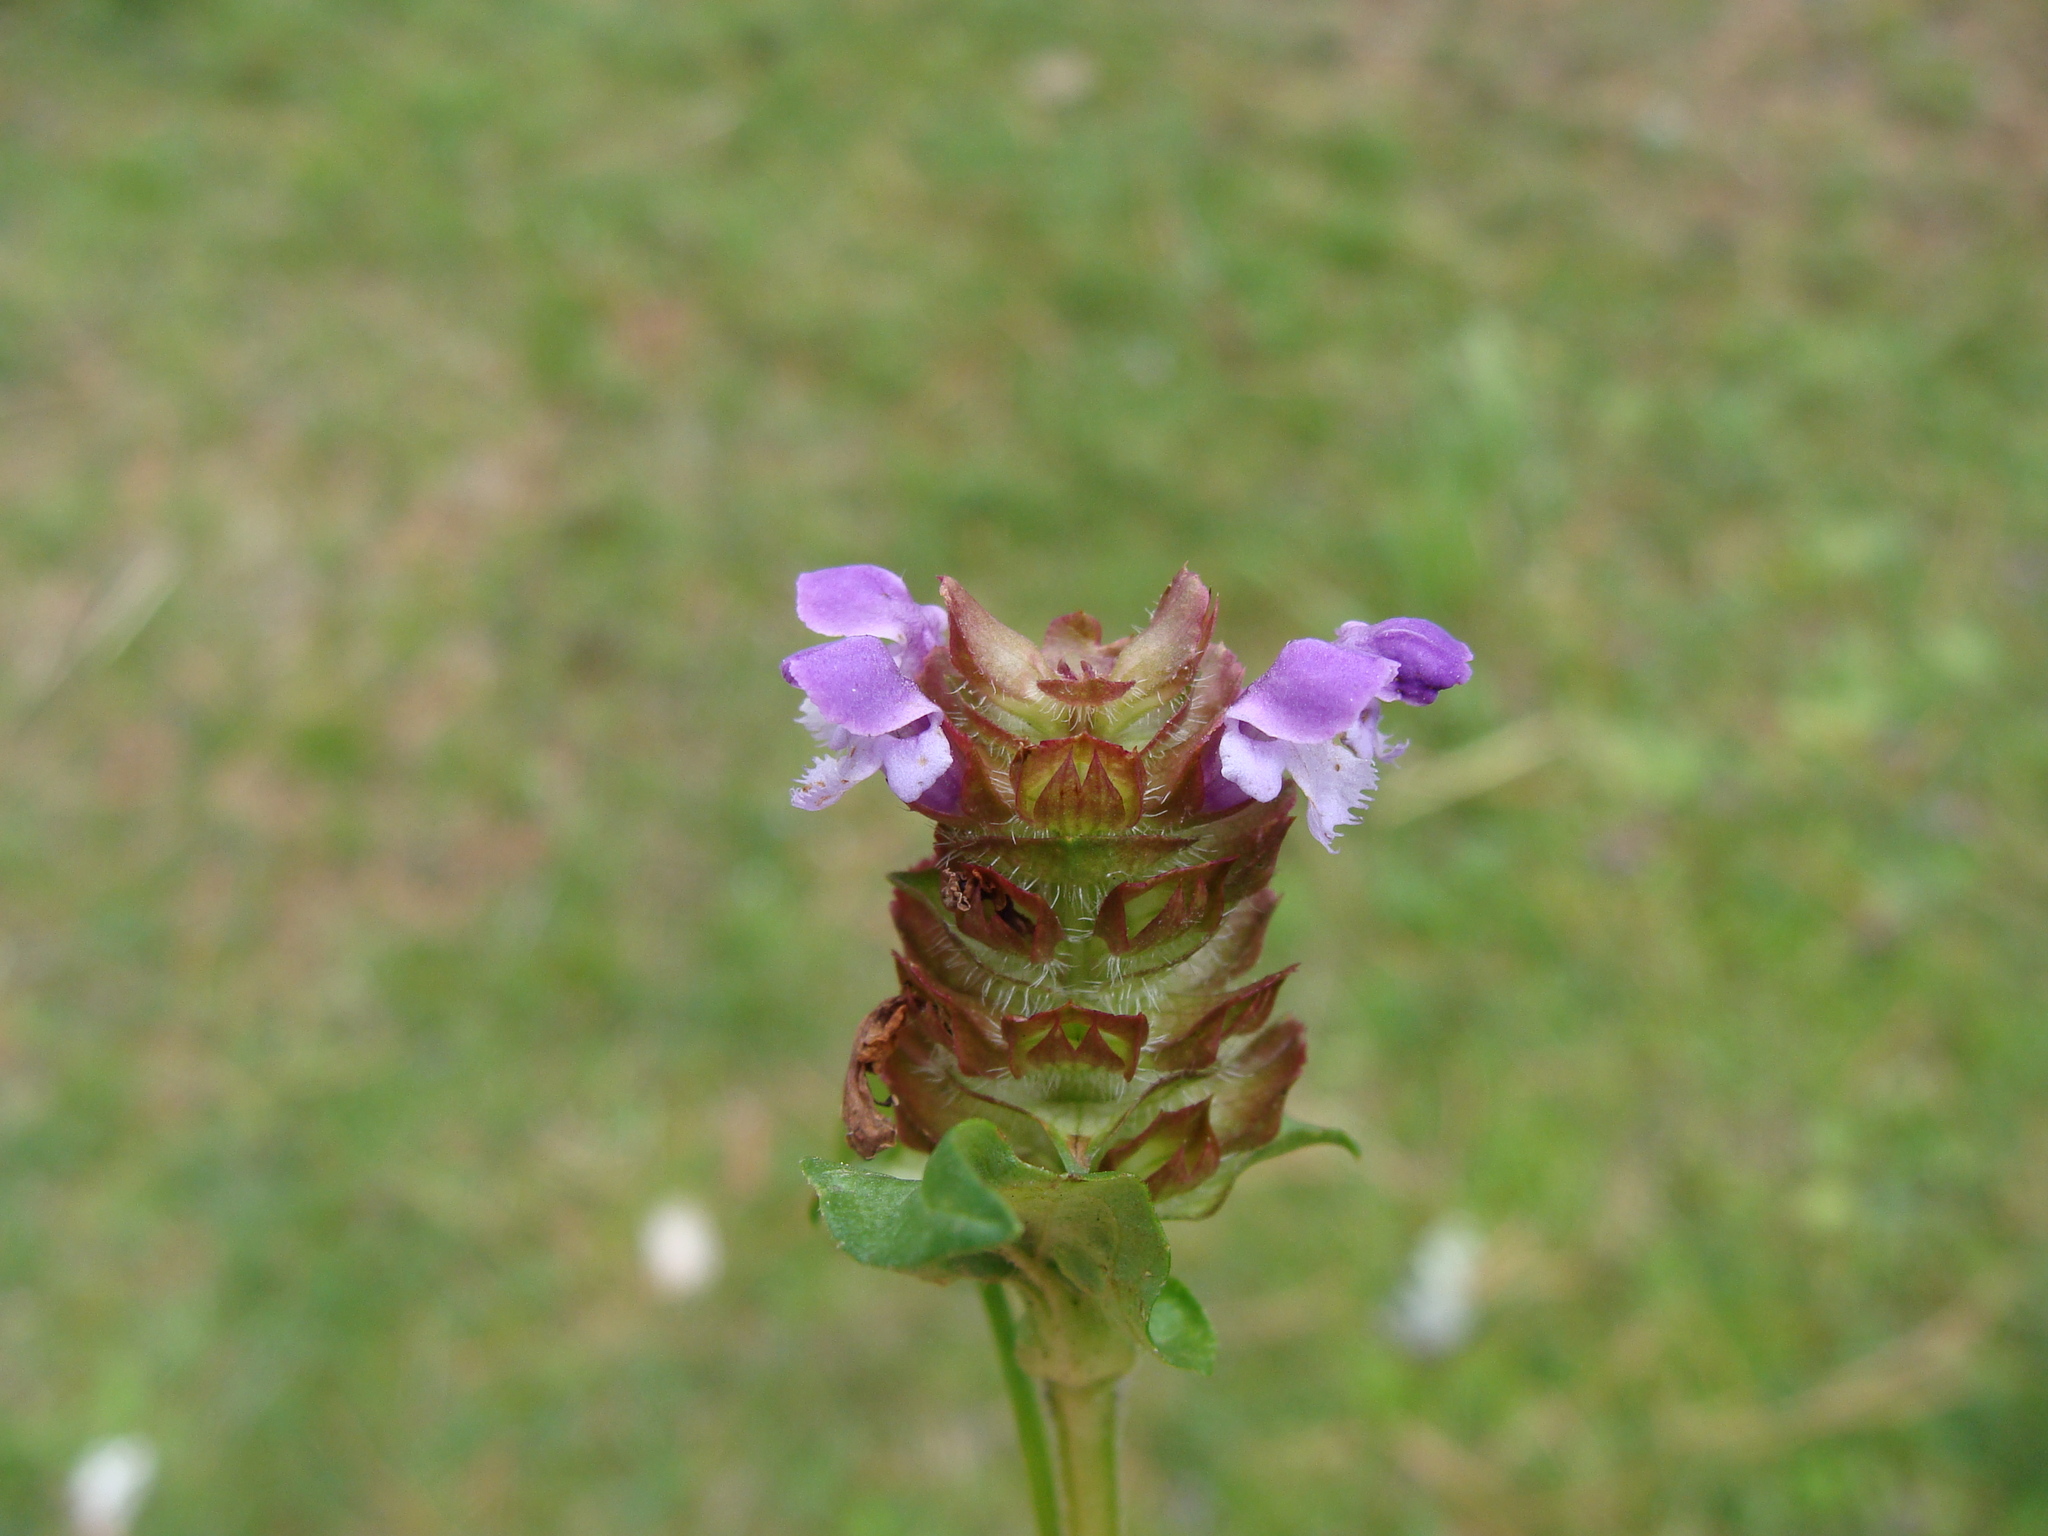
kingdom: Plantae
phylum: Tracheophyta
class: Magnoliopsida
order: Lamiales
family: Lamiaceae
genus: Prunella
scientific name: Prunella vulgaris
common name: Heal-all
